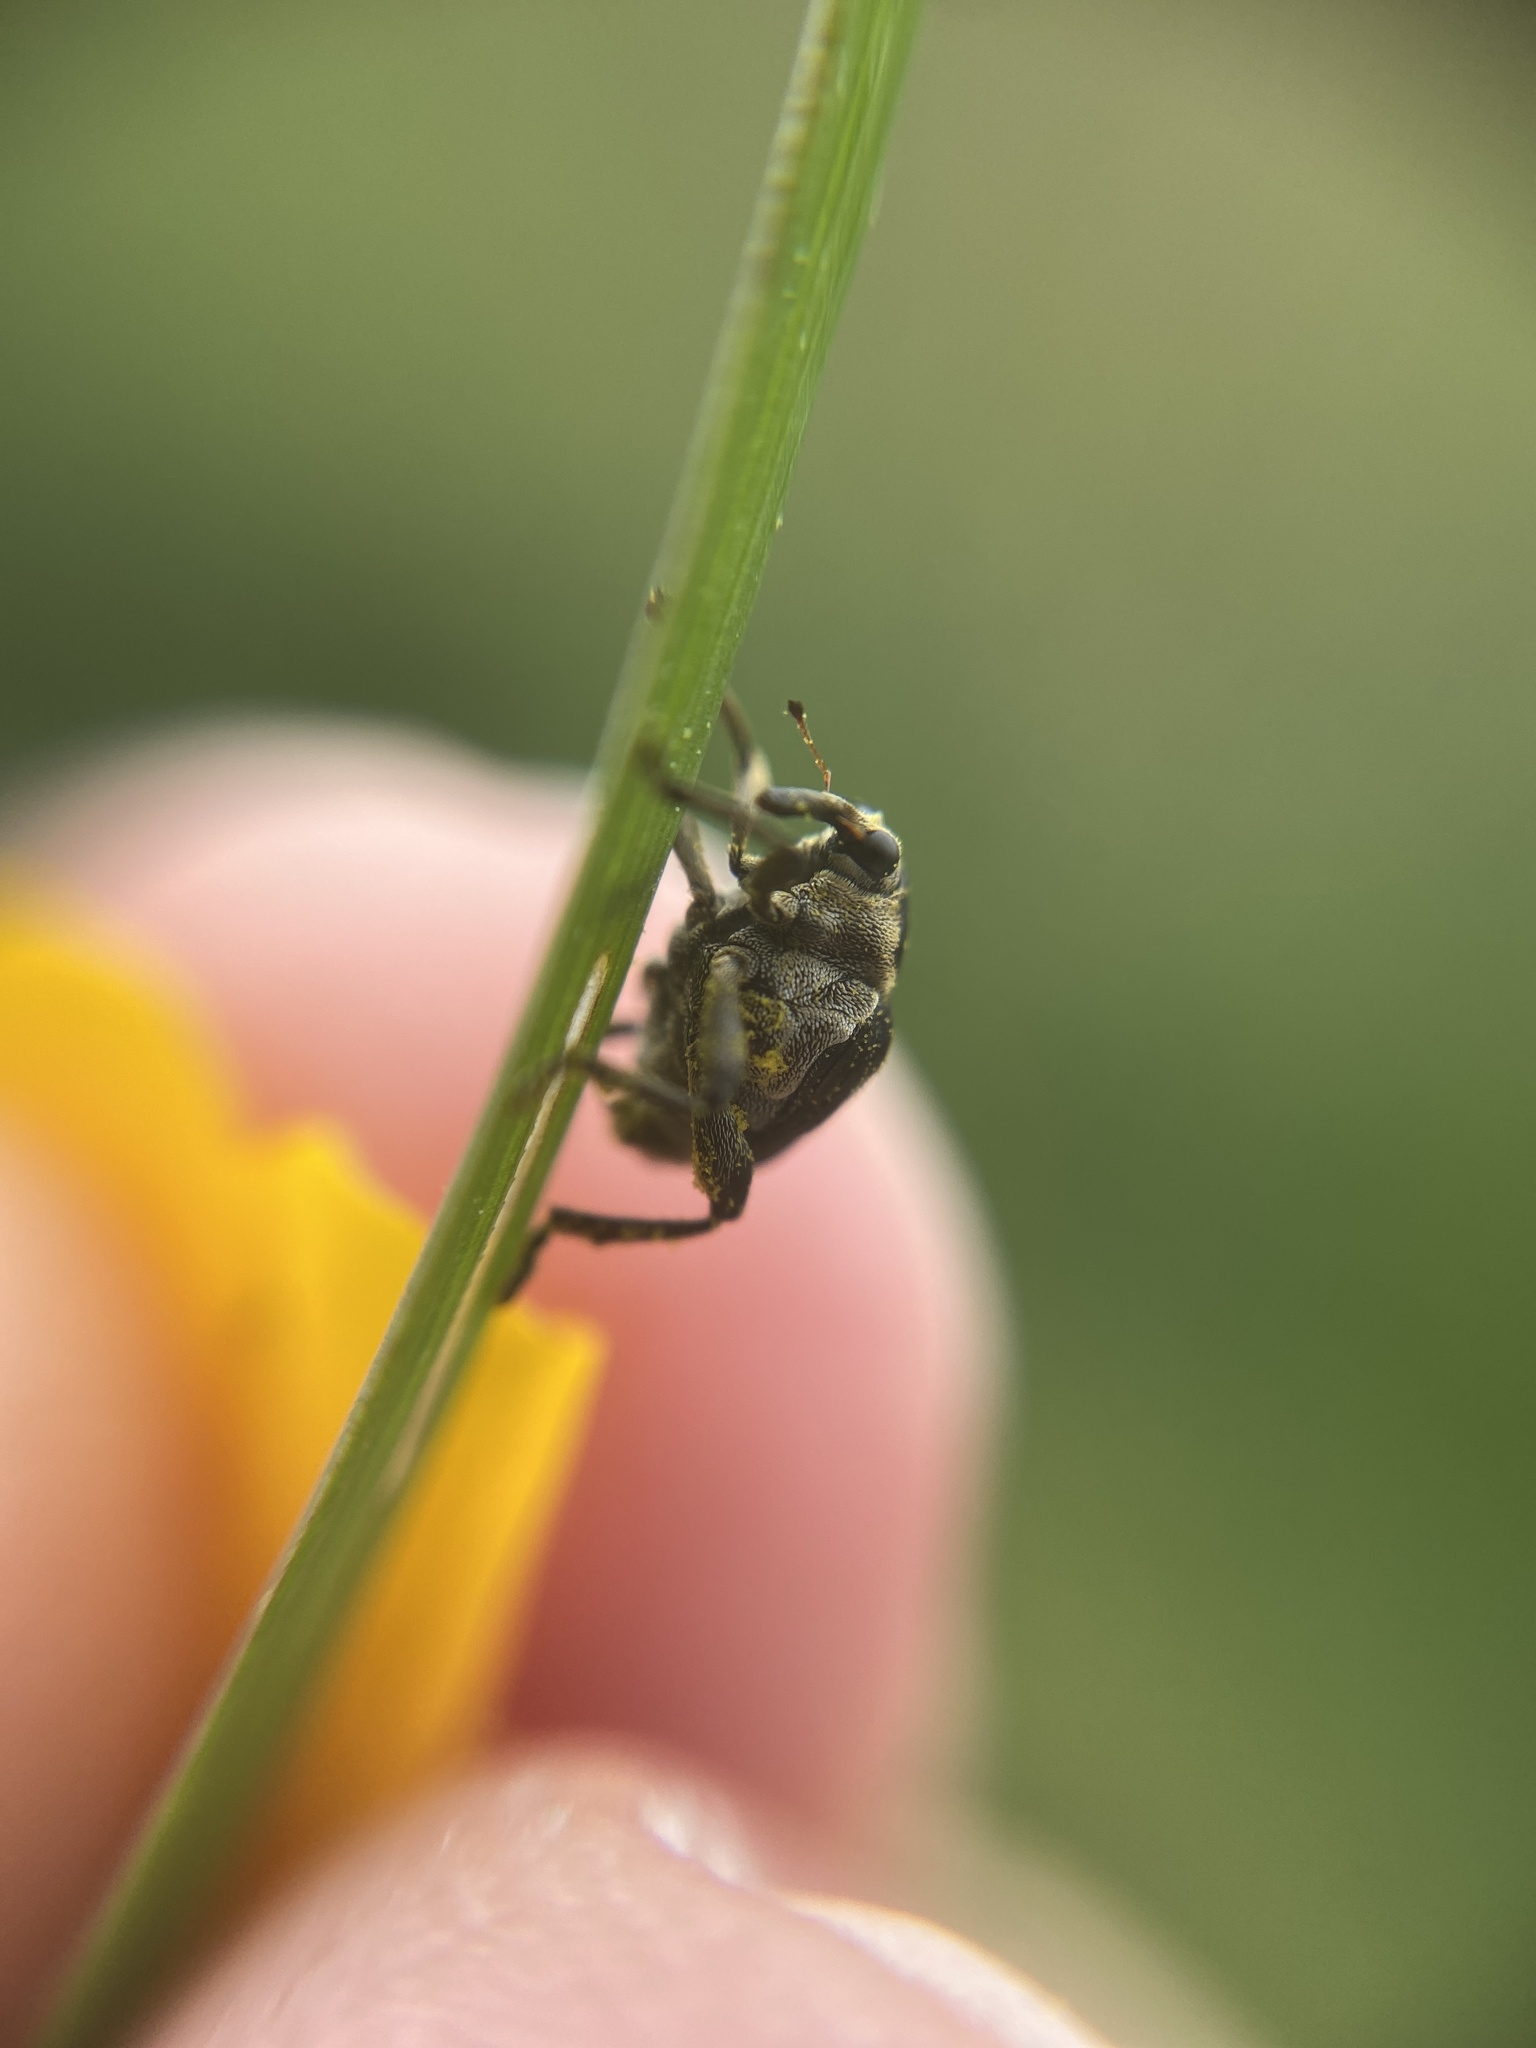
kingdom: Animalia
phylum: Arthropoda
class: Insecta
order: Coleoptera
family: Curculionidae
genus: Mononychus
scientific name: Mononychus punctumalbum
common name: Iris weevil
